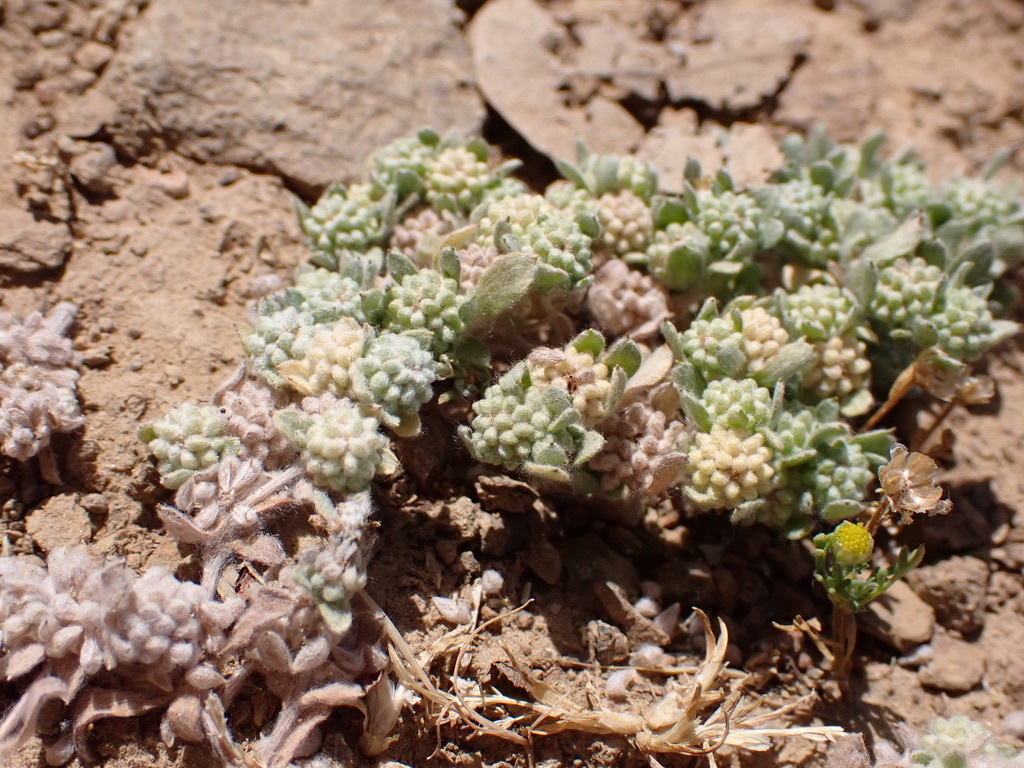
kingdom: Plantae
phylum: Tracheophyta
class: Magnoliopsida
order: Asterales
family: Asteraceae
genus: Psilocarphus
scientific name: Psilocarphus tenellus
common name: Slender woolly-marbles
